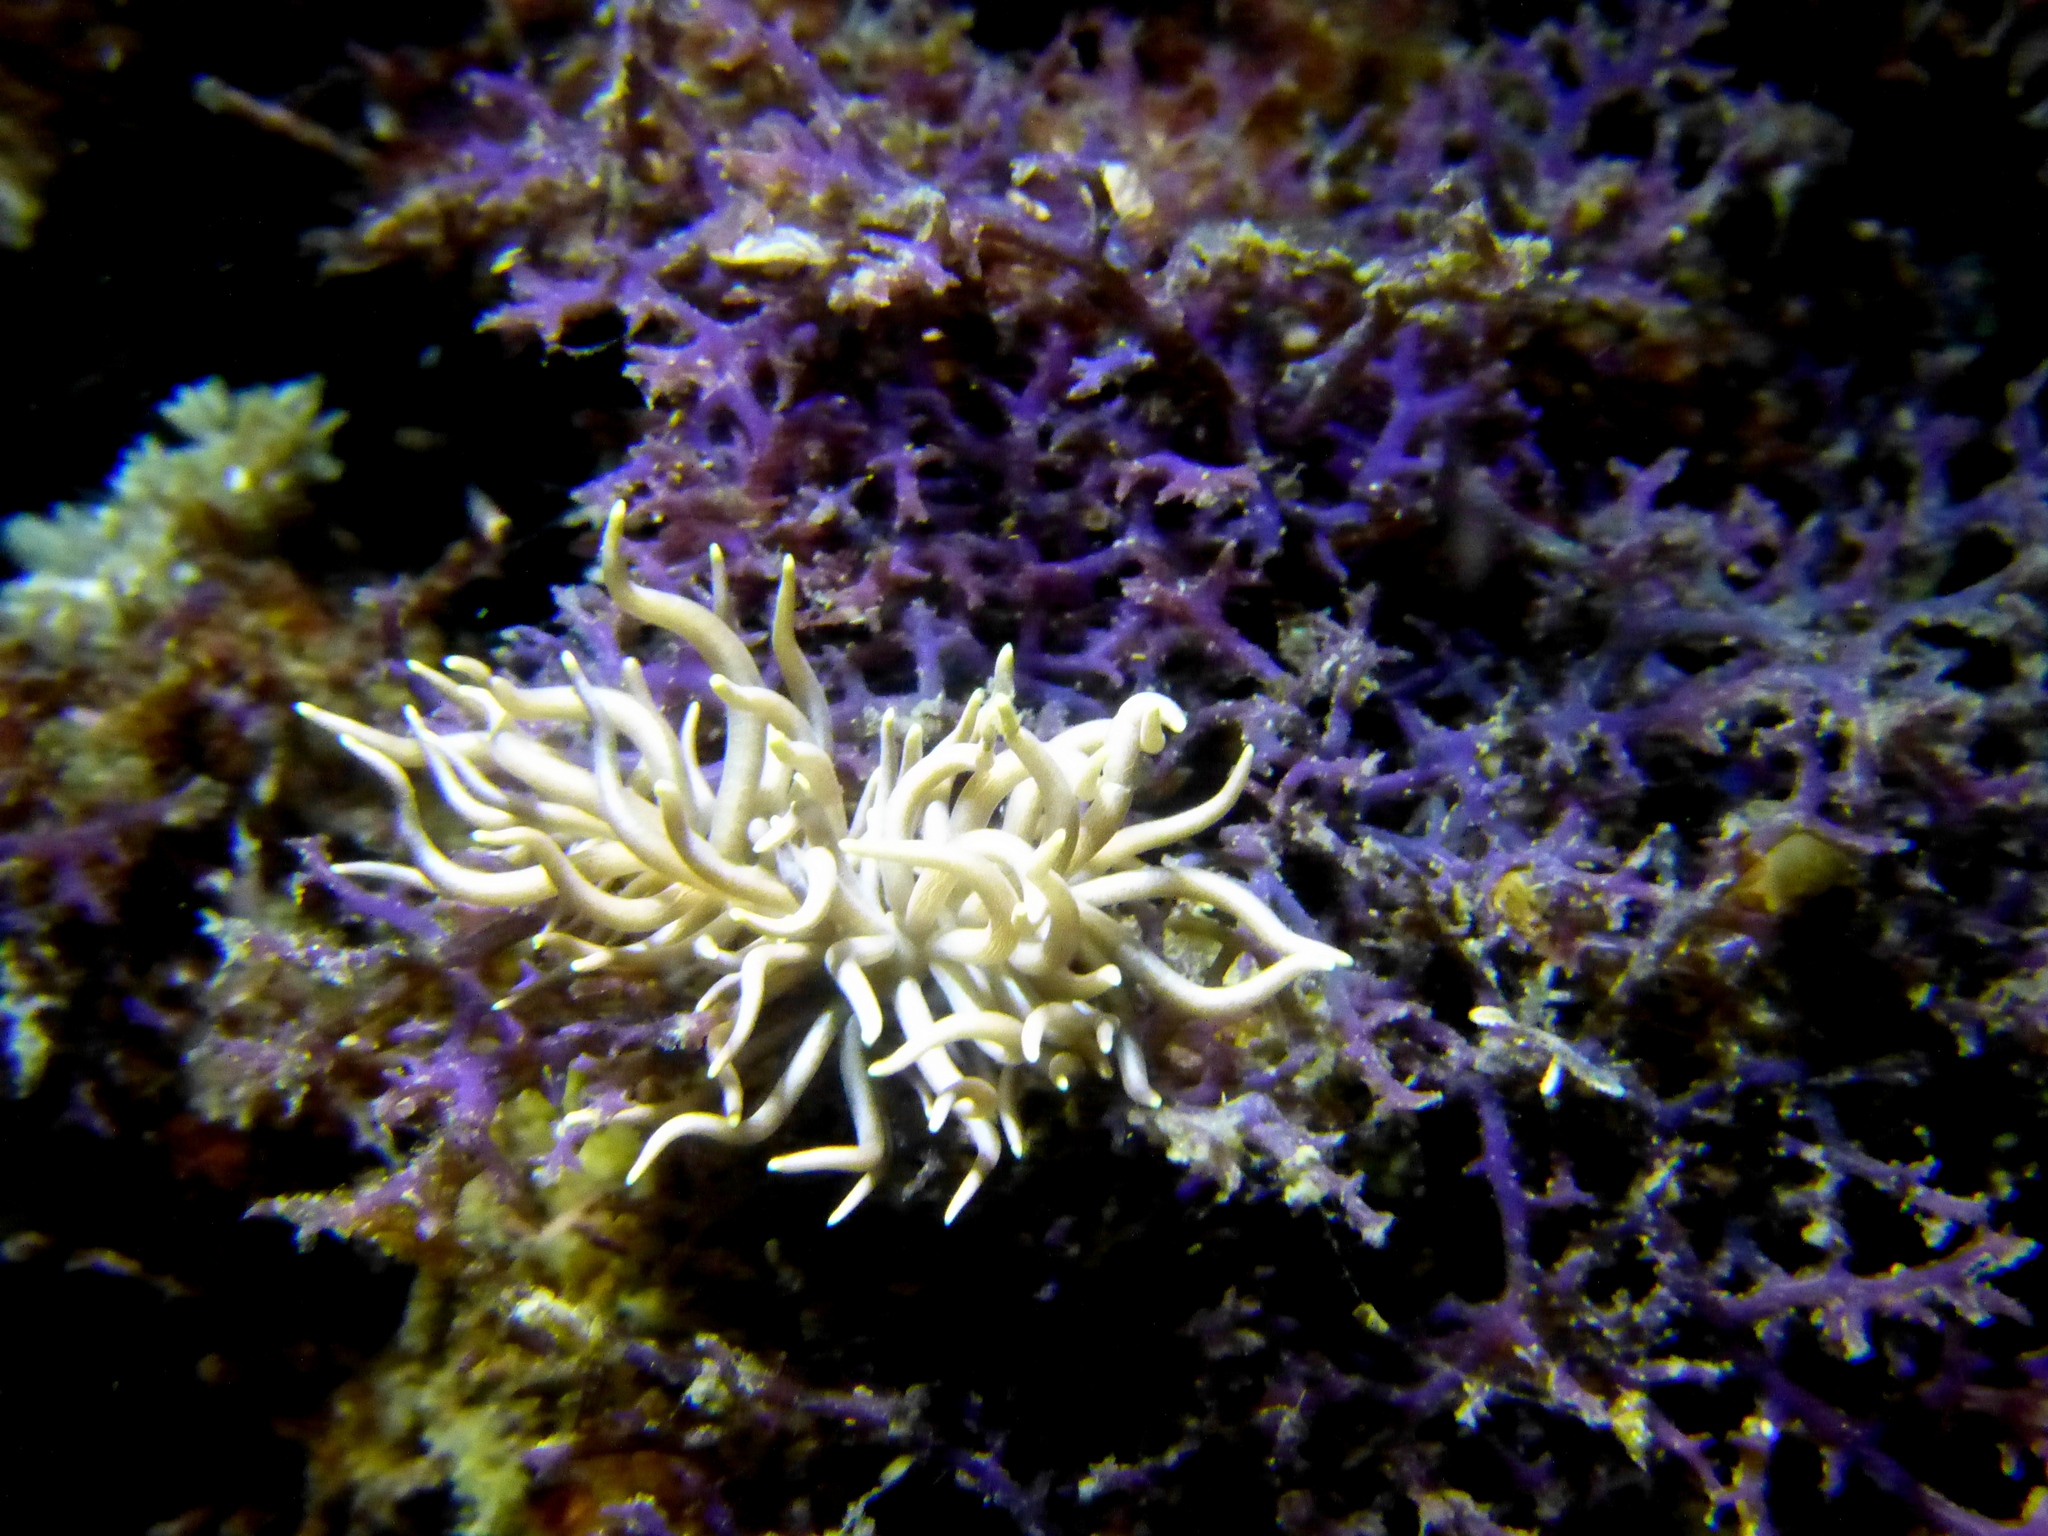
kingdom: Animalia
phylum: Mollusca
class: Gastropoda
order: Nudibranchia
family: Myrrhinidae
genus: Phyllodesmium
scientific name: Phyllodesmium briareum
